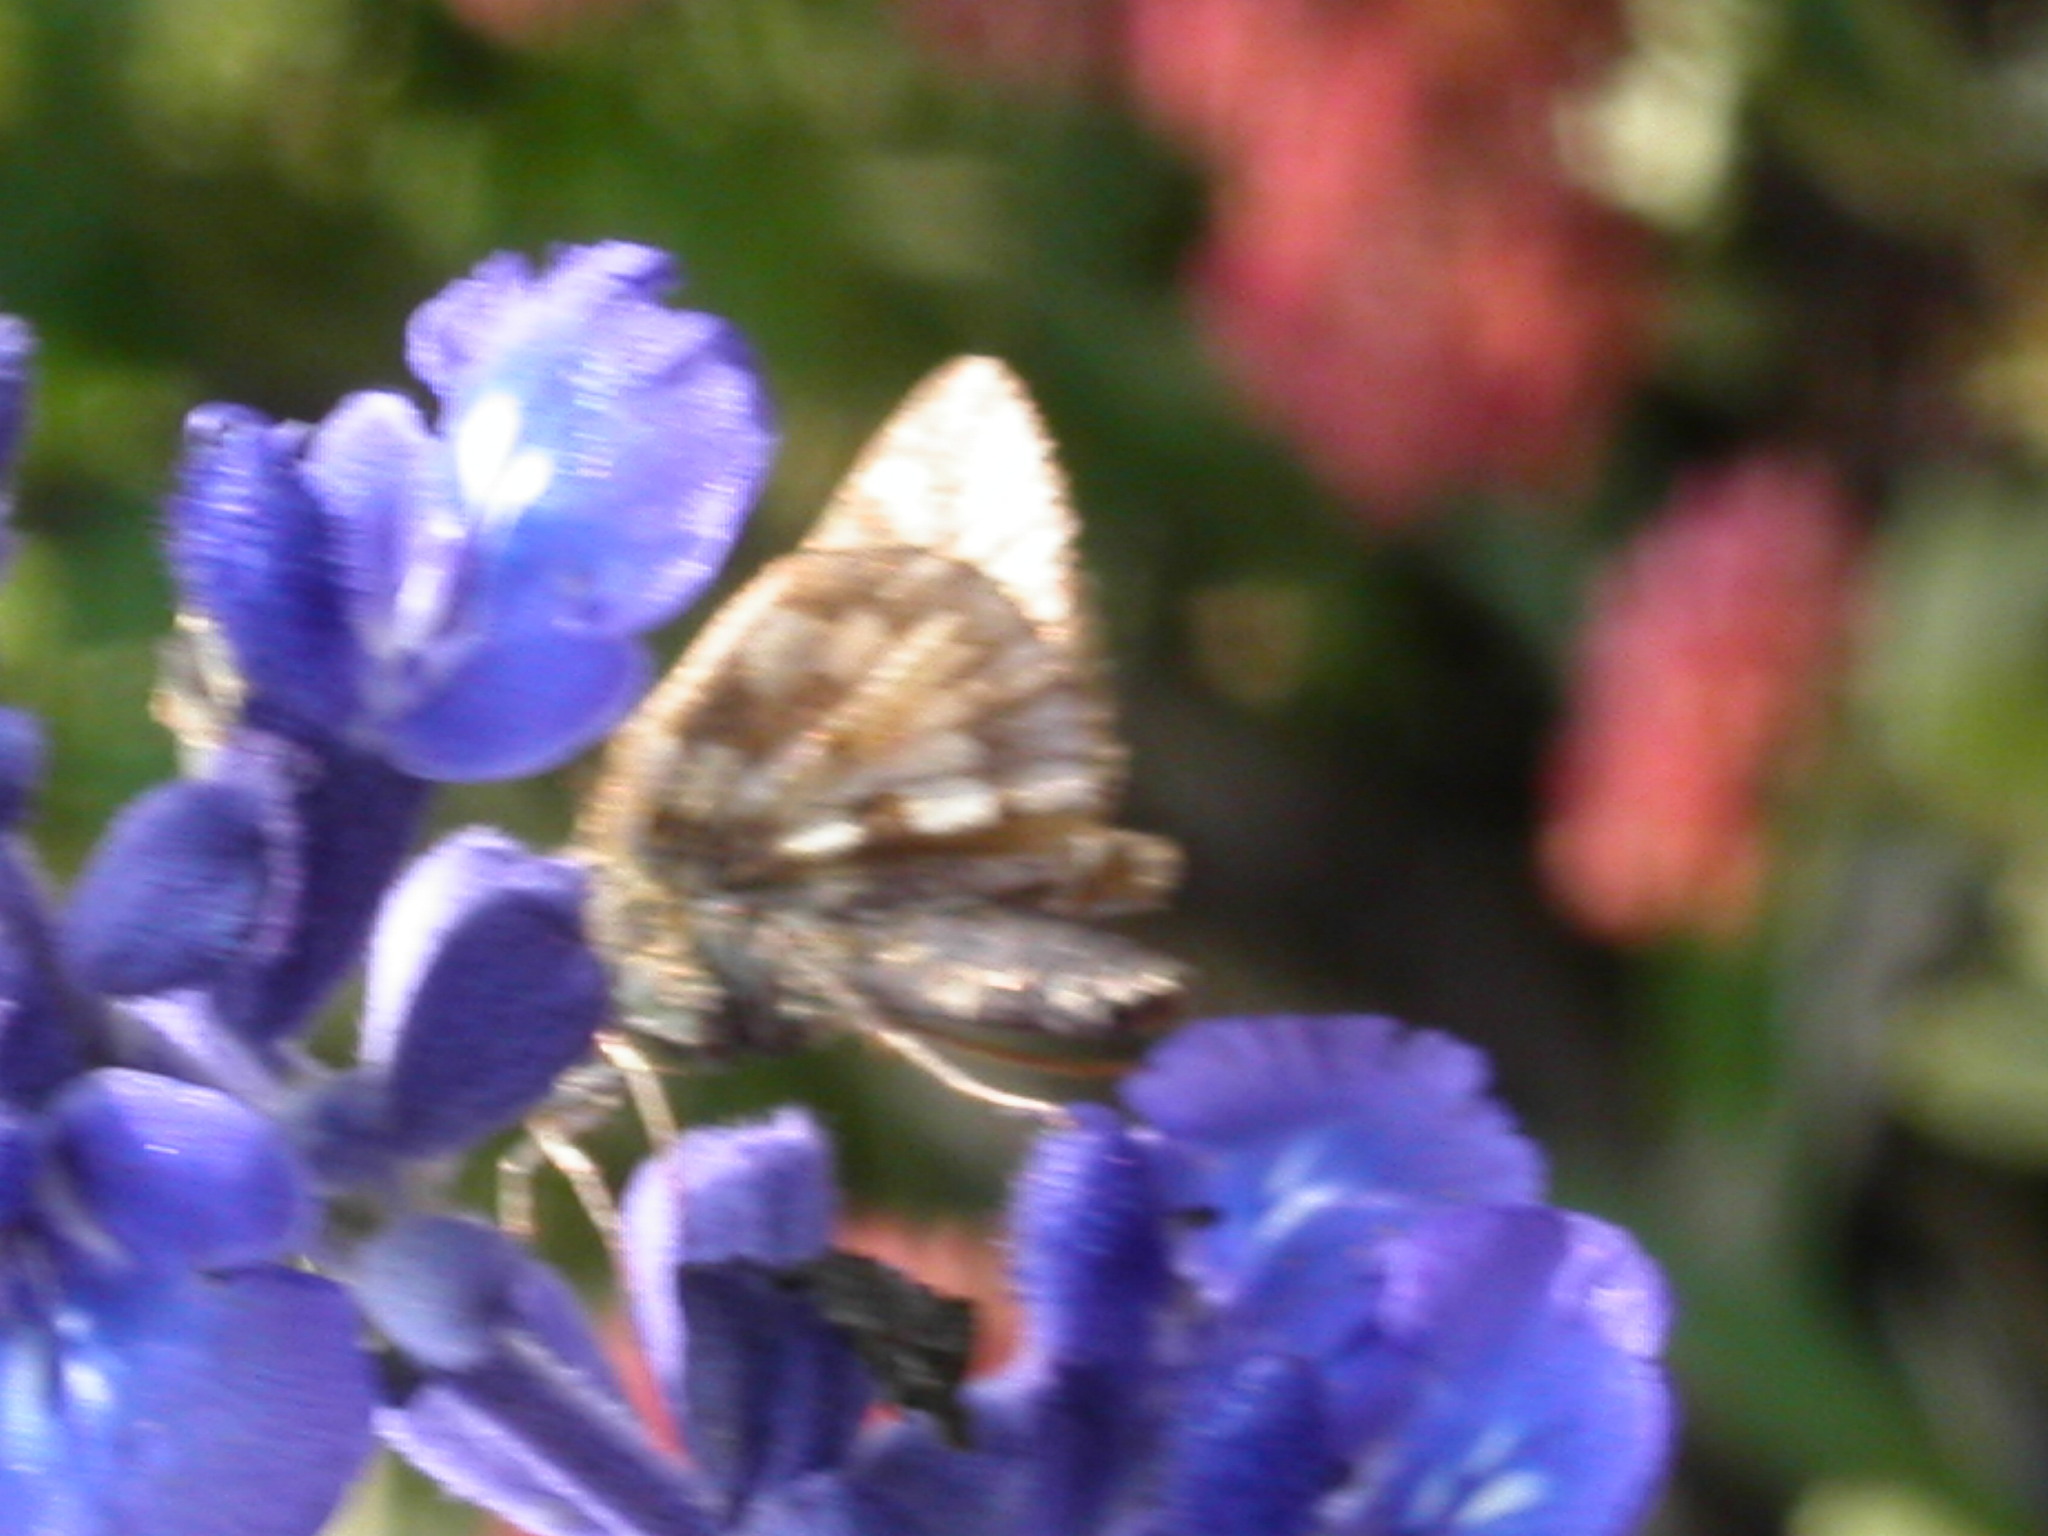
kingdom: Animalia
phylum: Arthropoda
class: Insecta
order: Lepidoptera
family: Hesperiidae
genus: Polites
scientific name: Polites coras
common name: Peck's skipper
